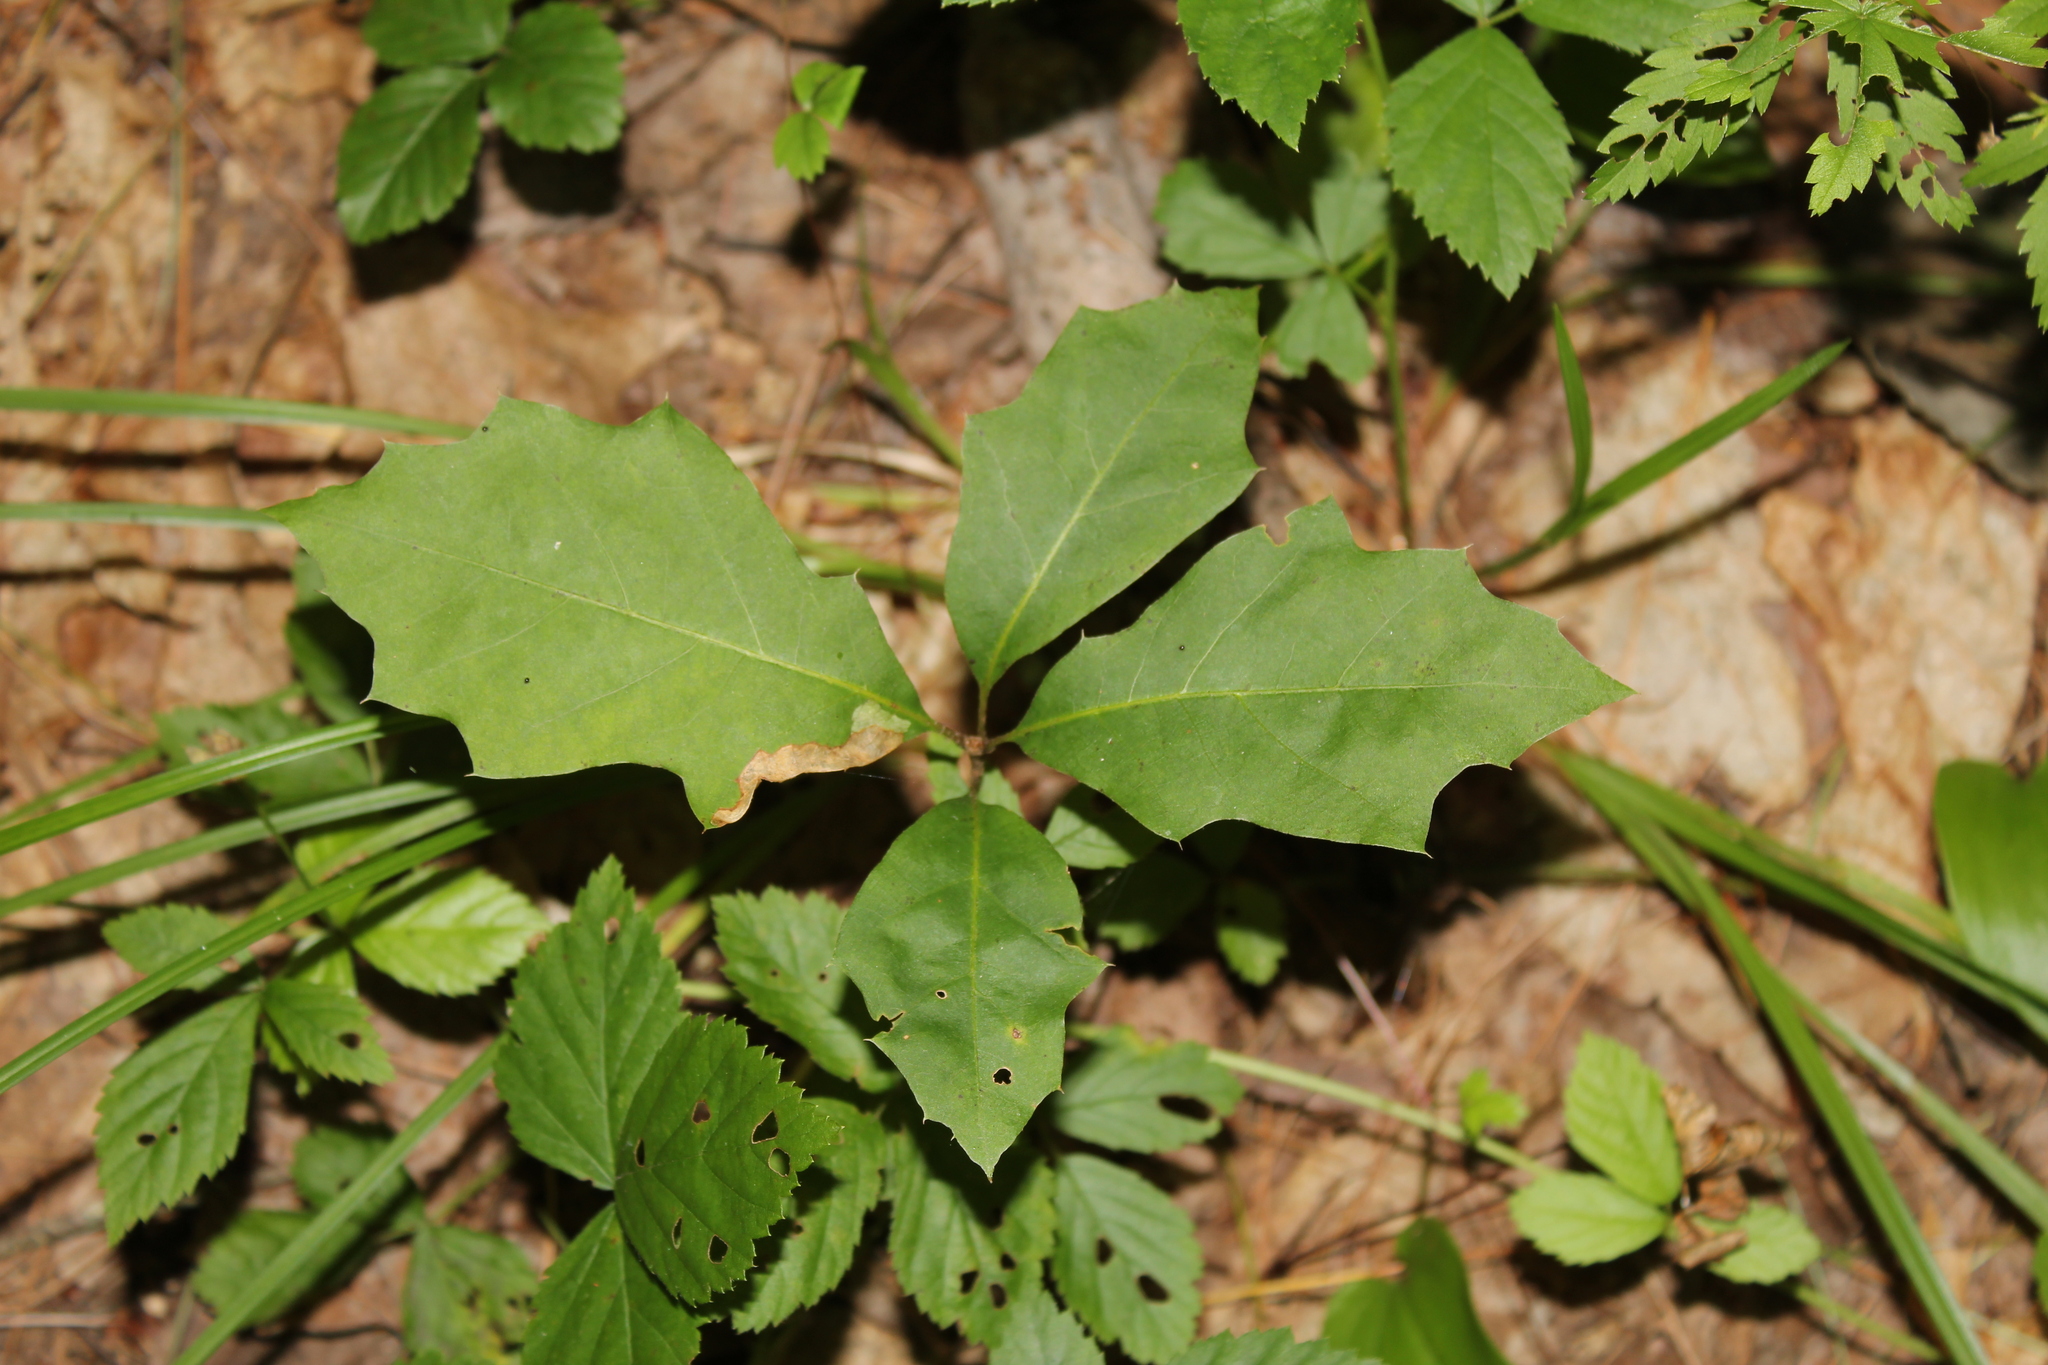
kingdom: Plantae
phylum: Tracheophyta
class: Magnoliopsida
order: Fagales
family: Fagaceae
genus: Quercus
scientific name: Quercus rubra
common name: Red oak
